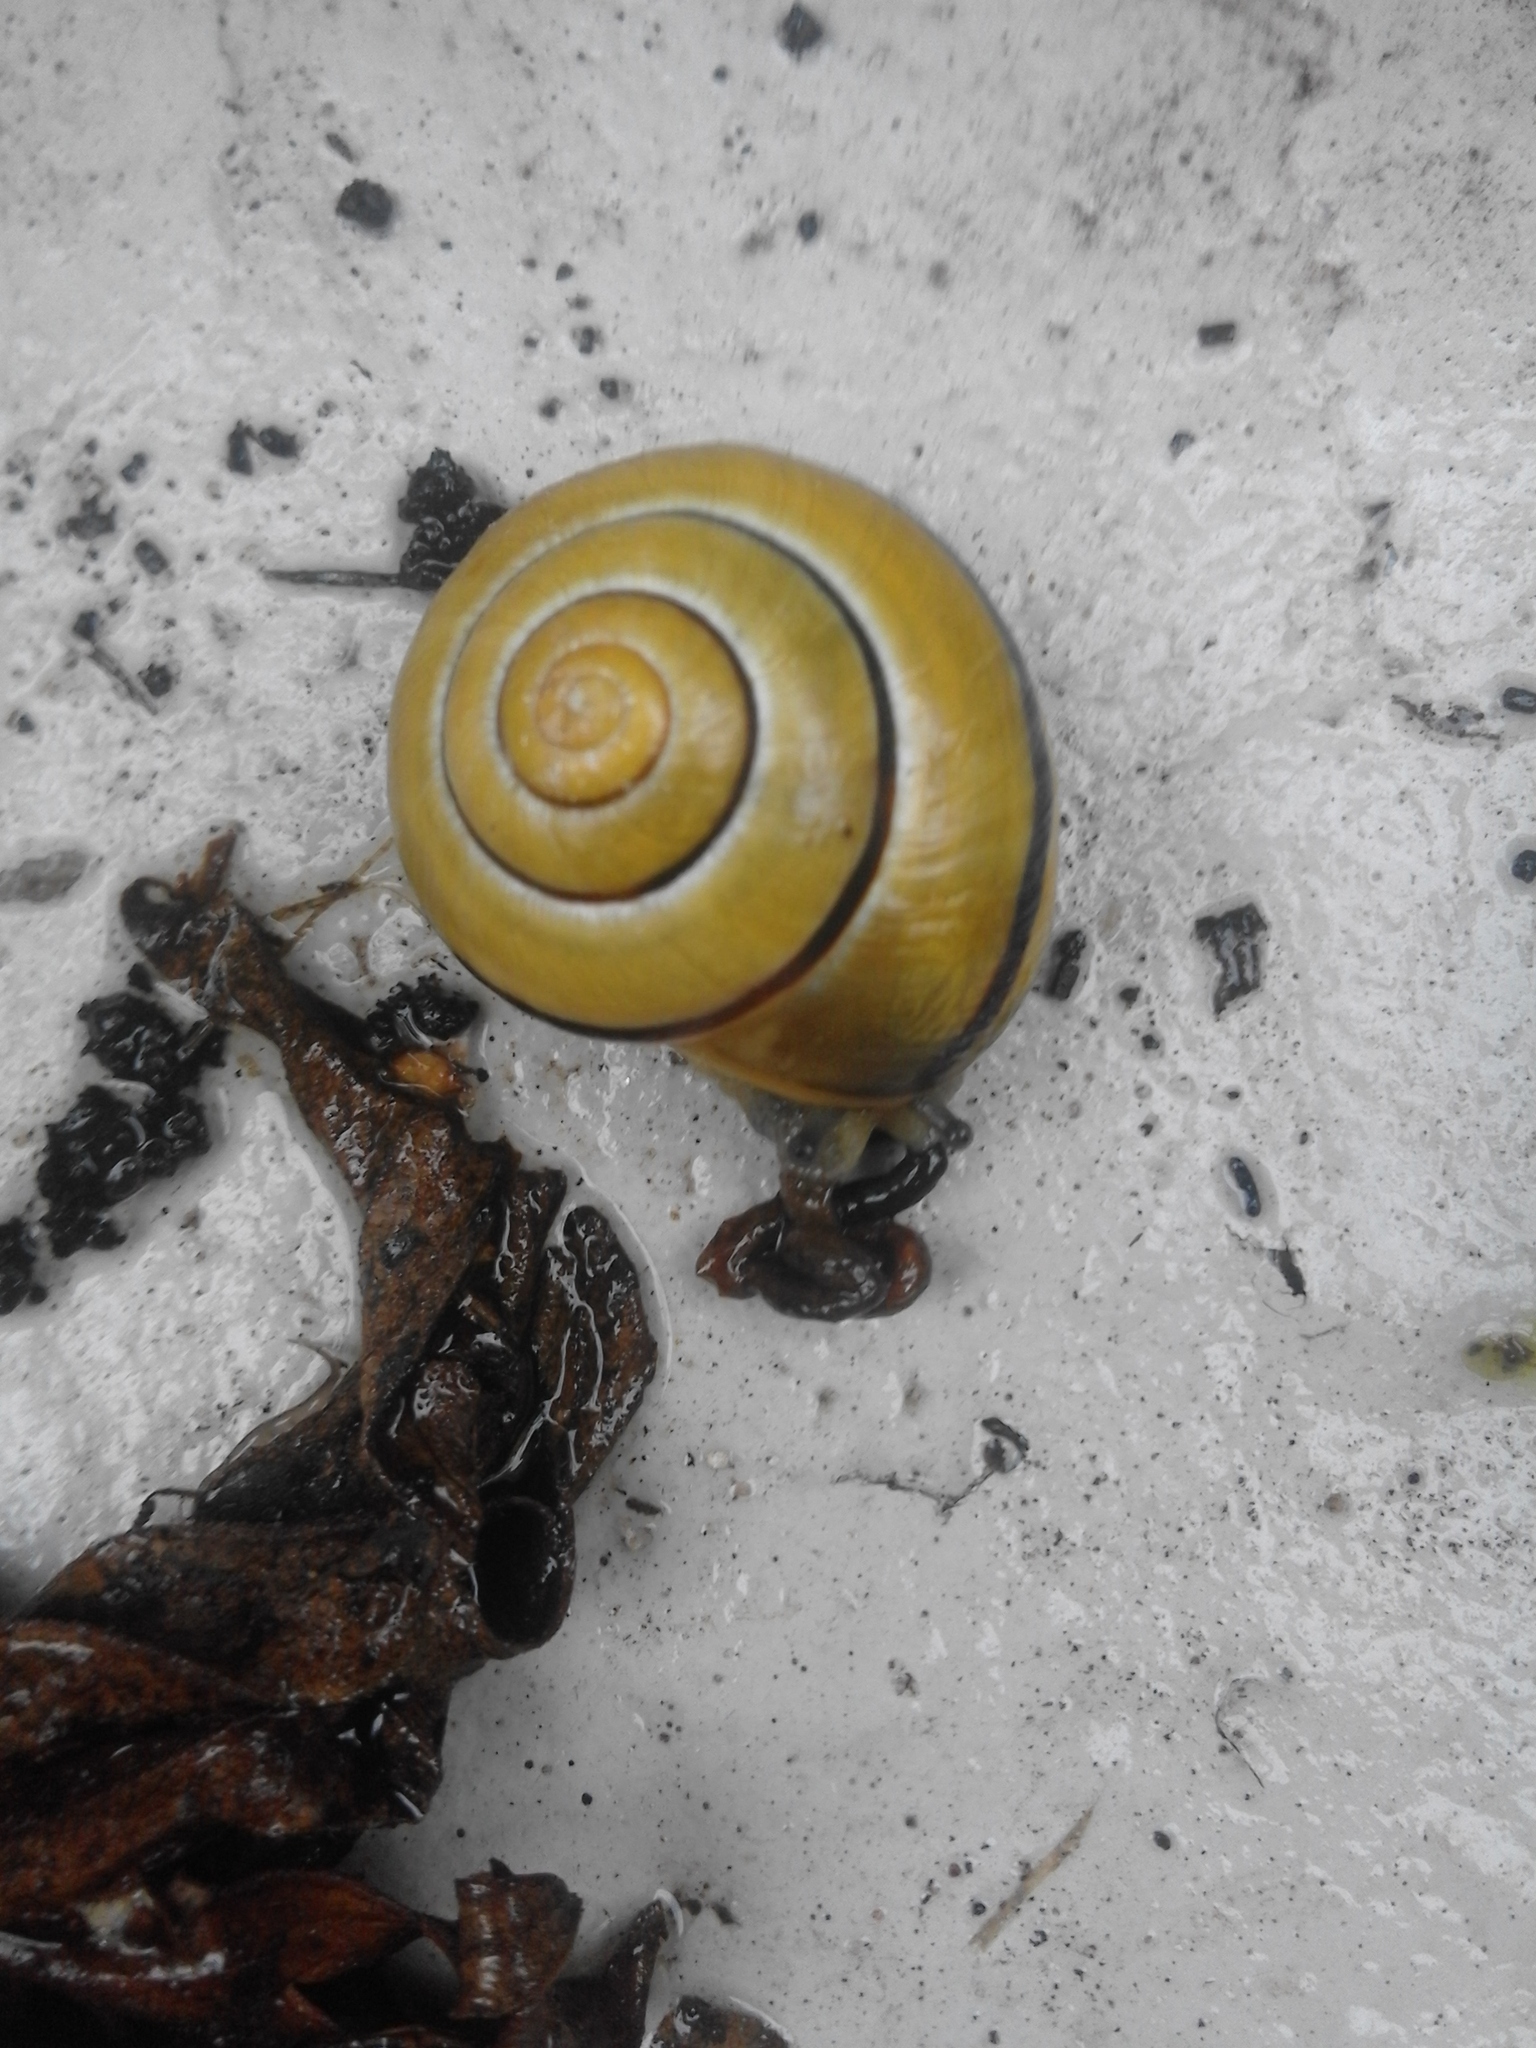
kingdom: Animalia
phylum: Mollusca
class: Gastropoda
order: Stylommatophora
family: Helicidae
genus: Cepaea
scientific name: Cepaea nemoralis
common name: Grovesnail
